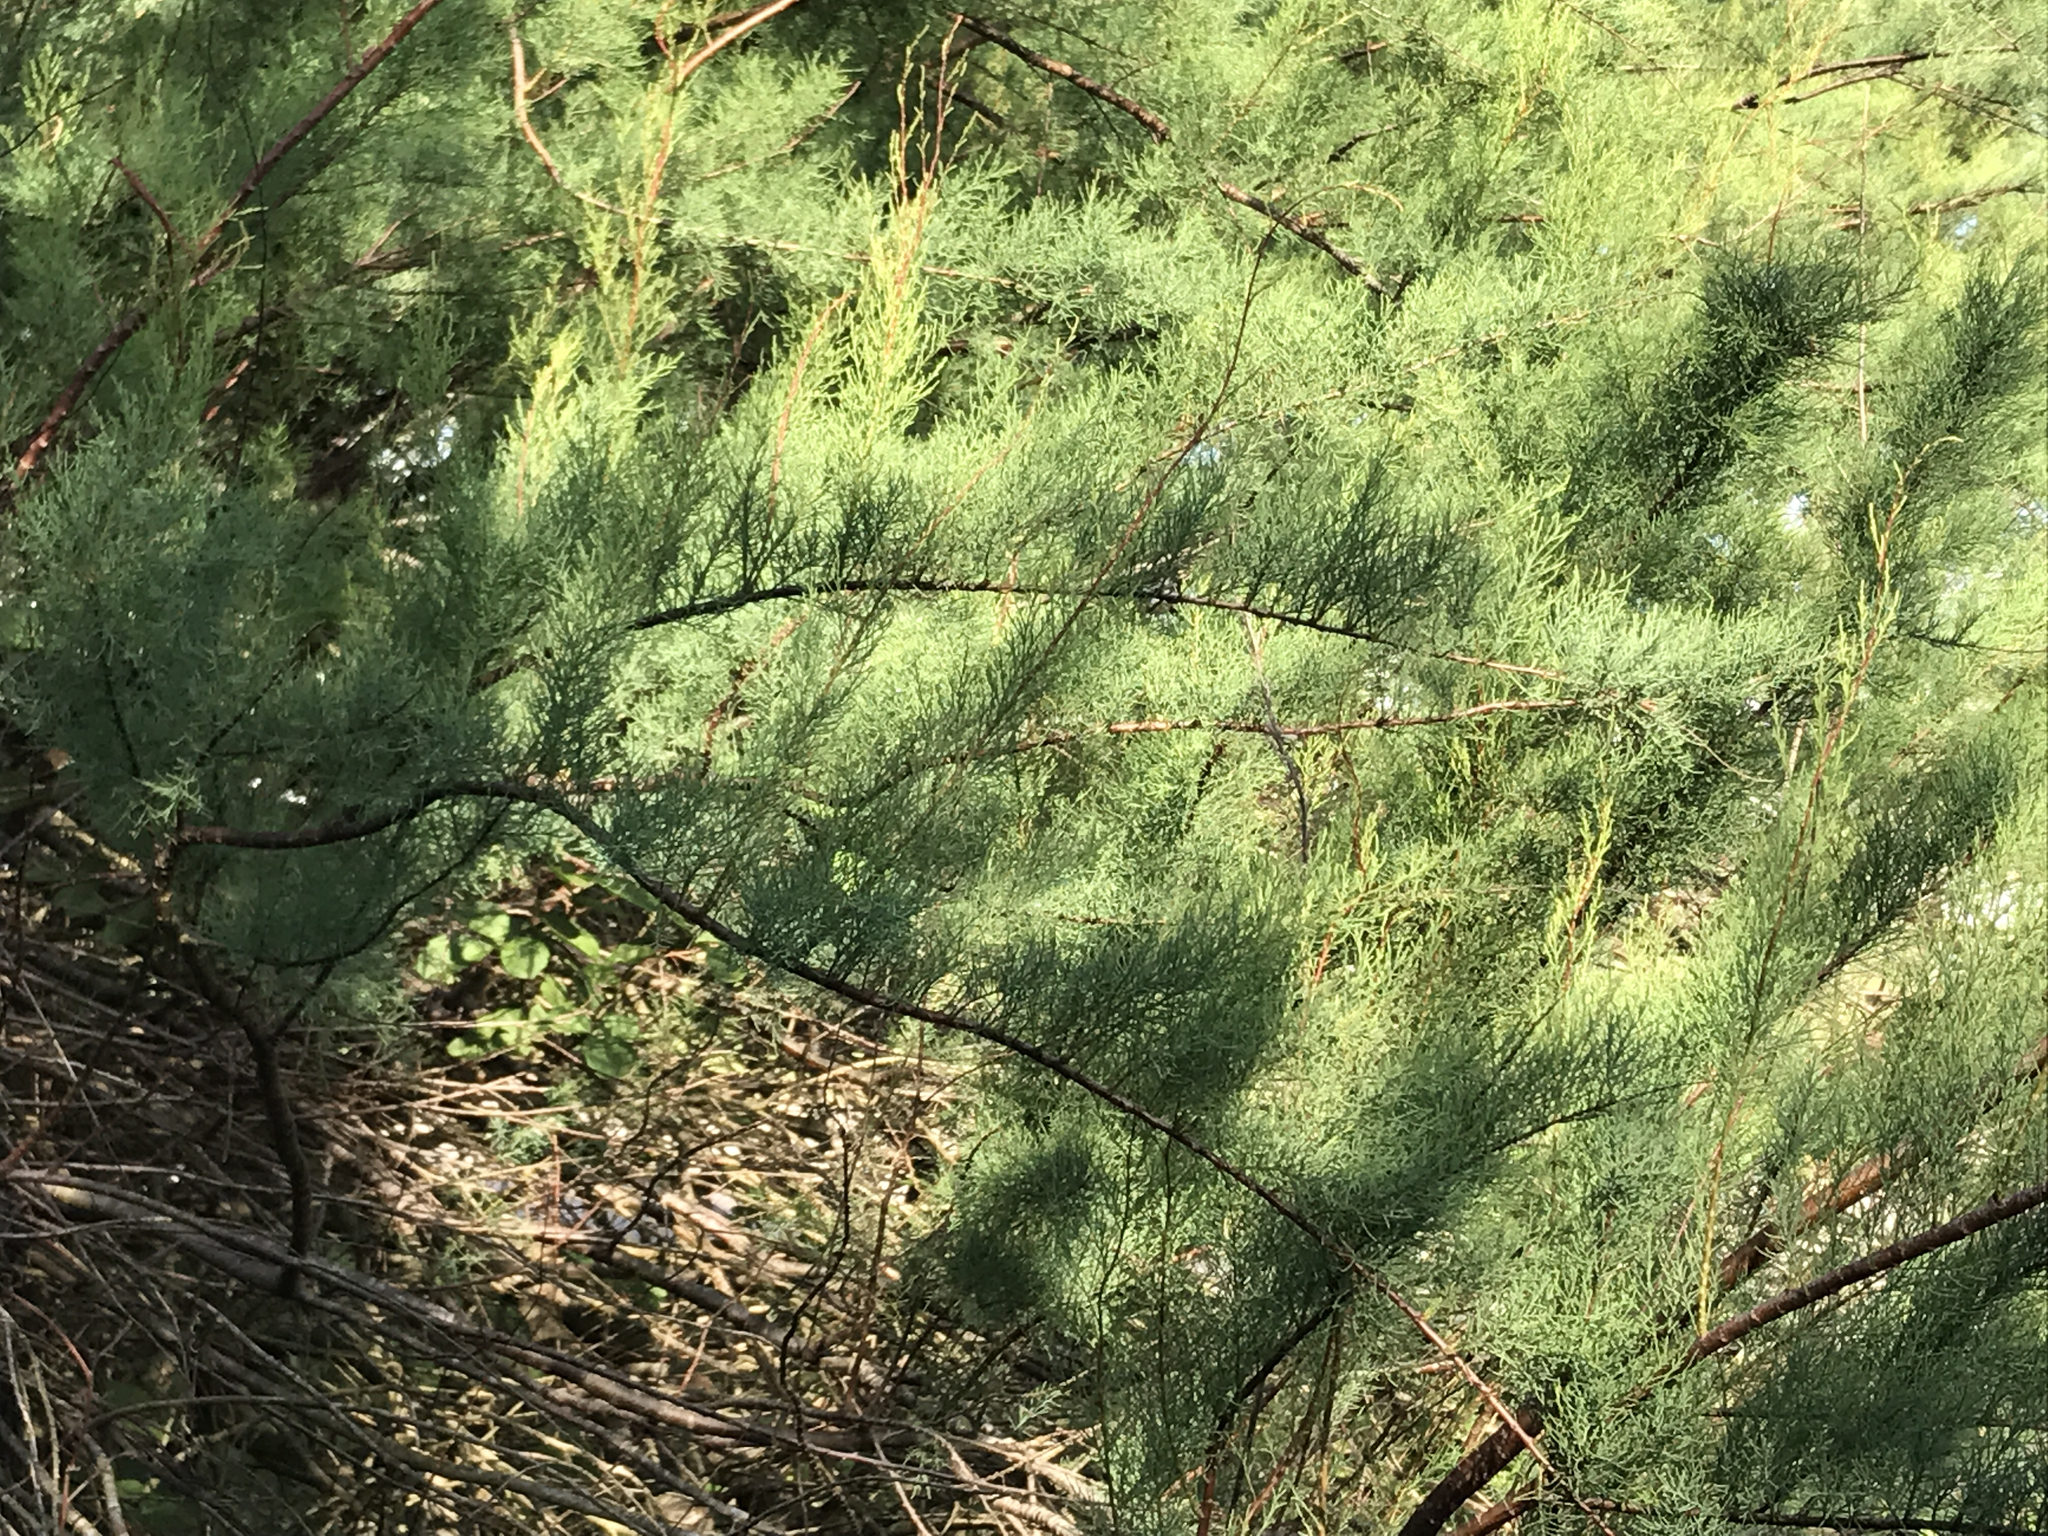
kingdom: Plantae
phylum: Tracheophyta
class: Magnoliopsida
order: Caryophyllales
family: Tamaricaceae
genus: Tamarix
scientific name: Tamarix
